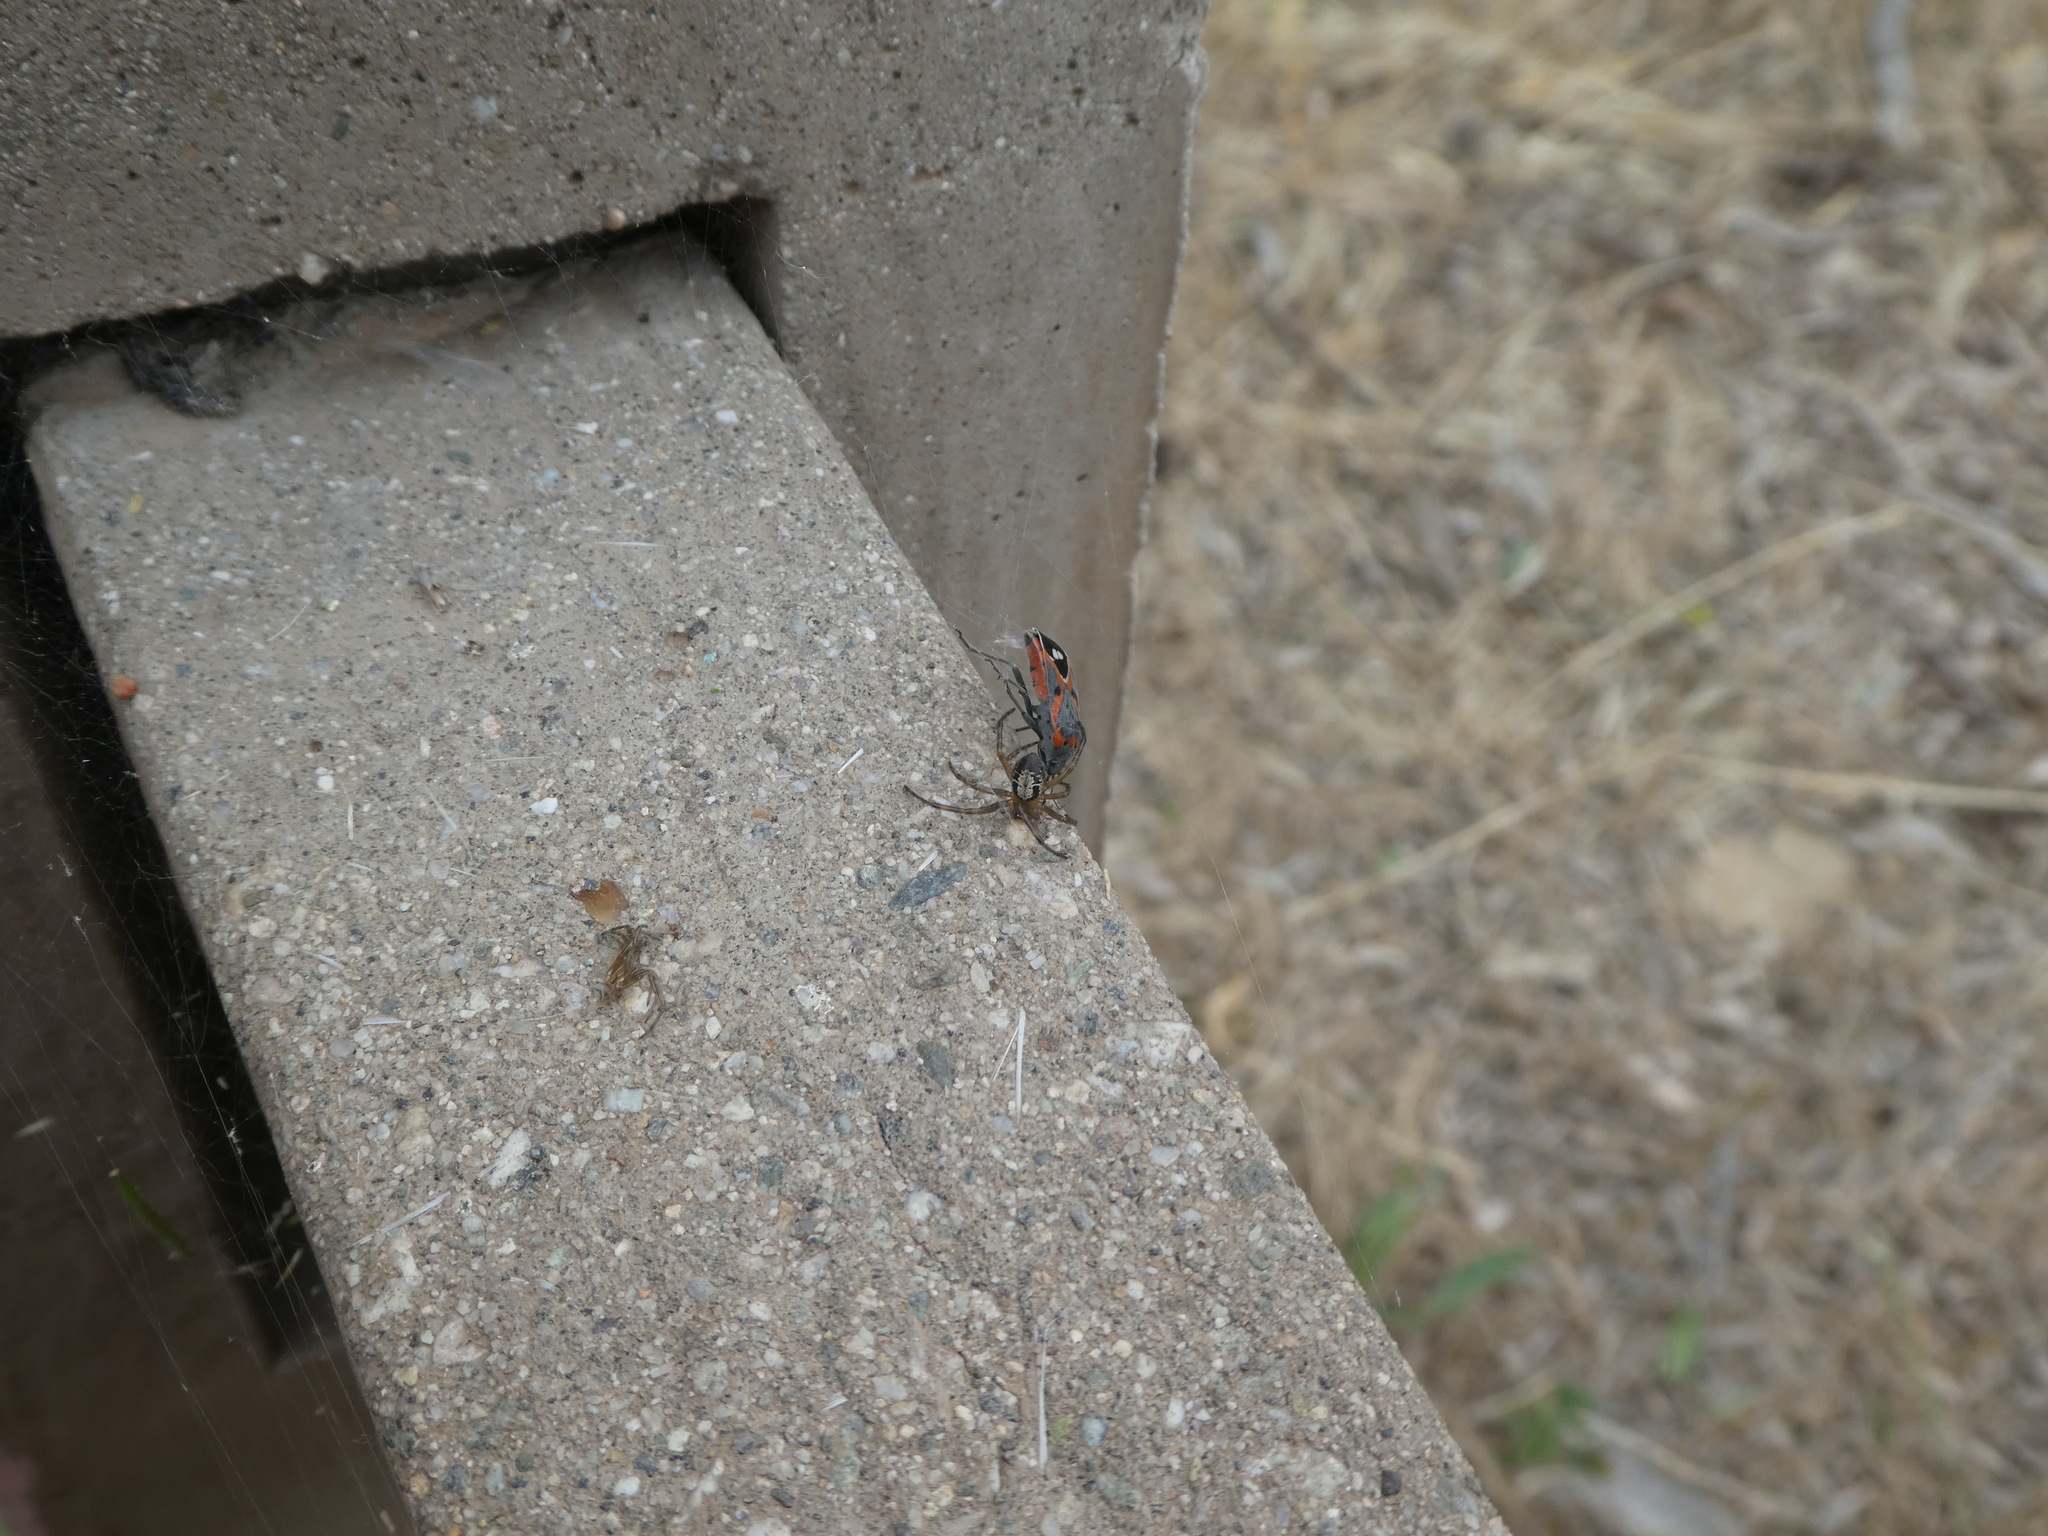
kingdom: Animalia
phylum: Arthropoda
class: Arachnida
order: Araneae
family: Theridiidae
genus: Steatoda
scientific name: Steatoda nobilis
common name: Cobweb weaver
